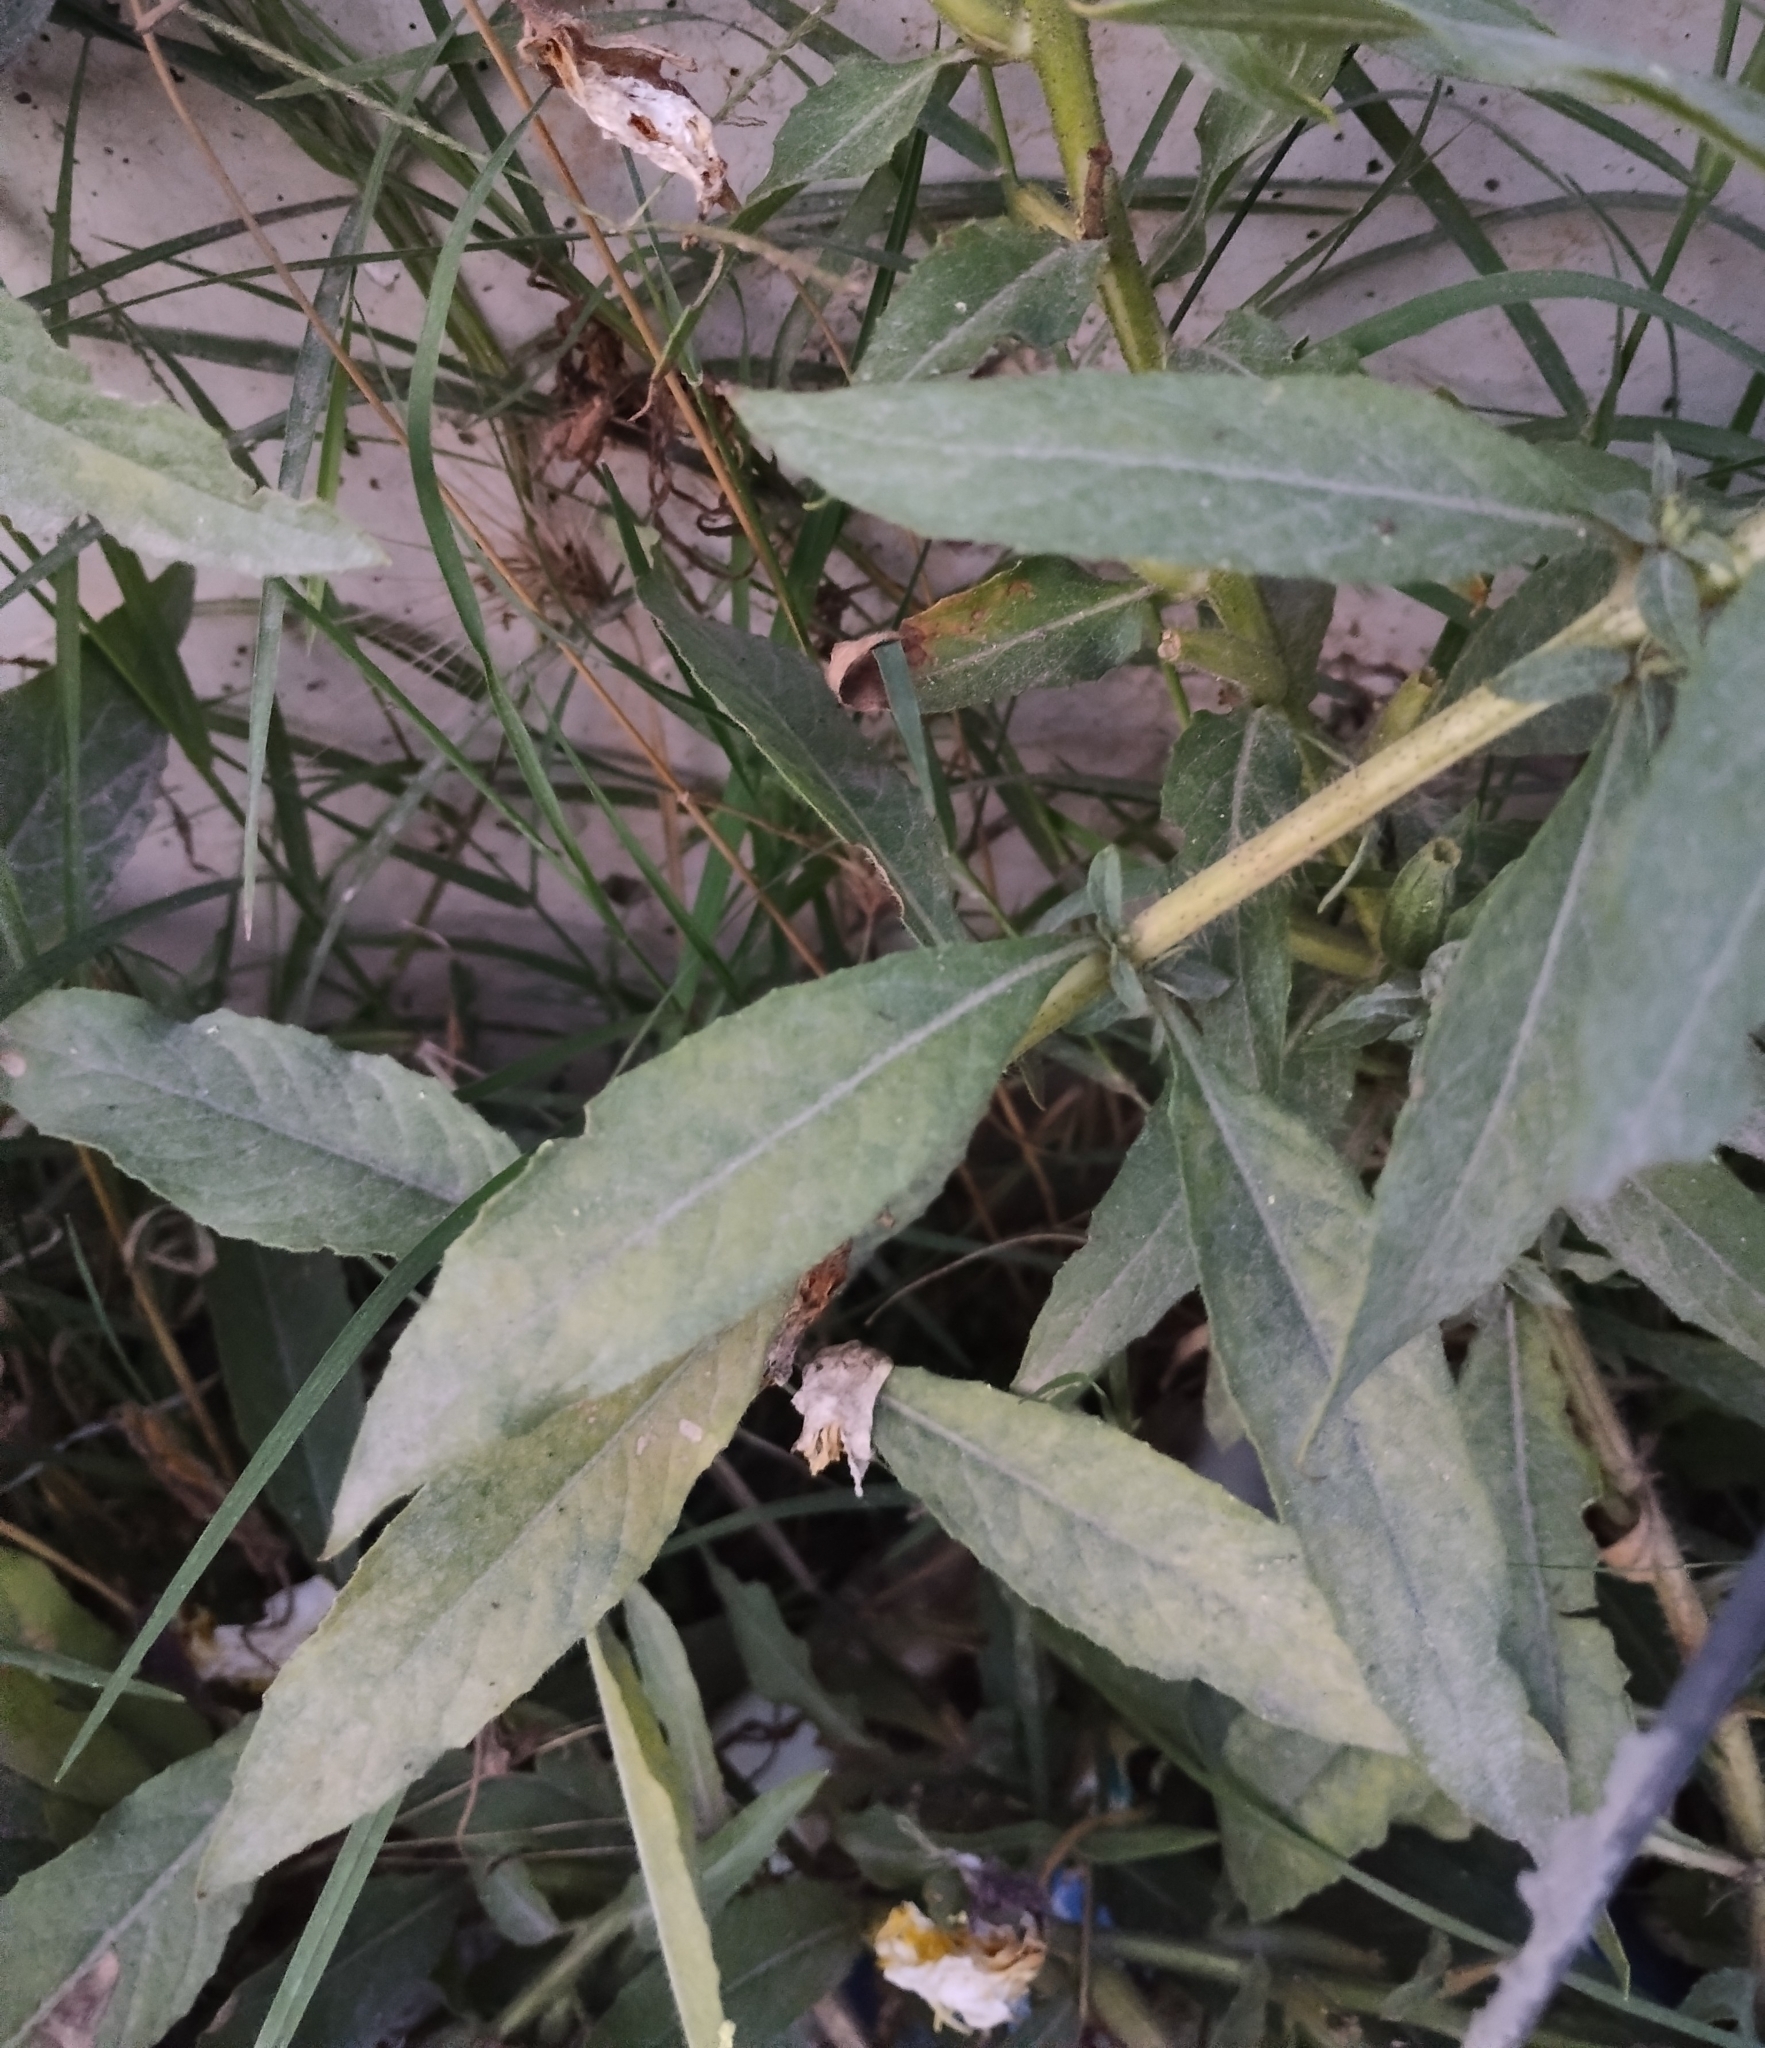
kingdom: Plantae
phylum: Tracheophyta
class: Magnoliopsida
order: Myrtales
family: Onagraceae
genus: Oenothera
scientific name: Oenothera glazioviana
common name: Large-flowered evening-primrose
